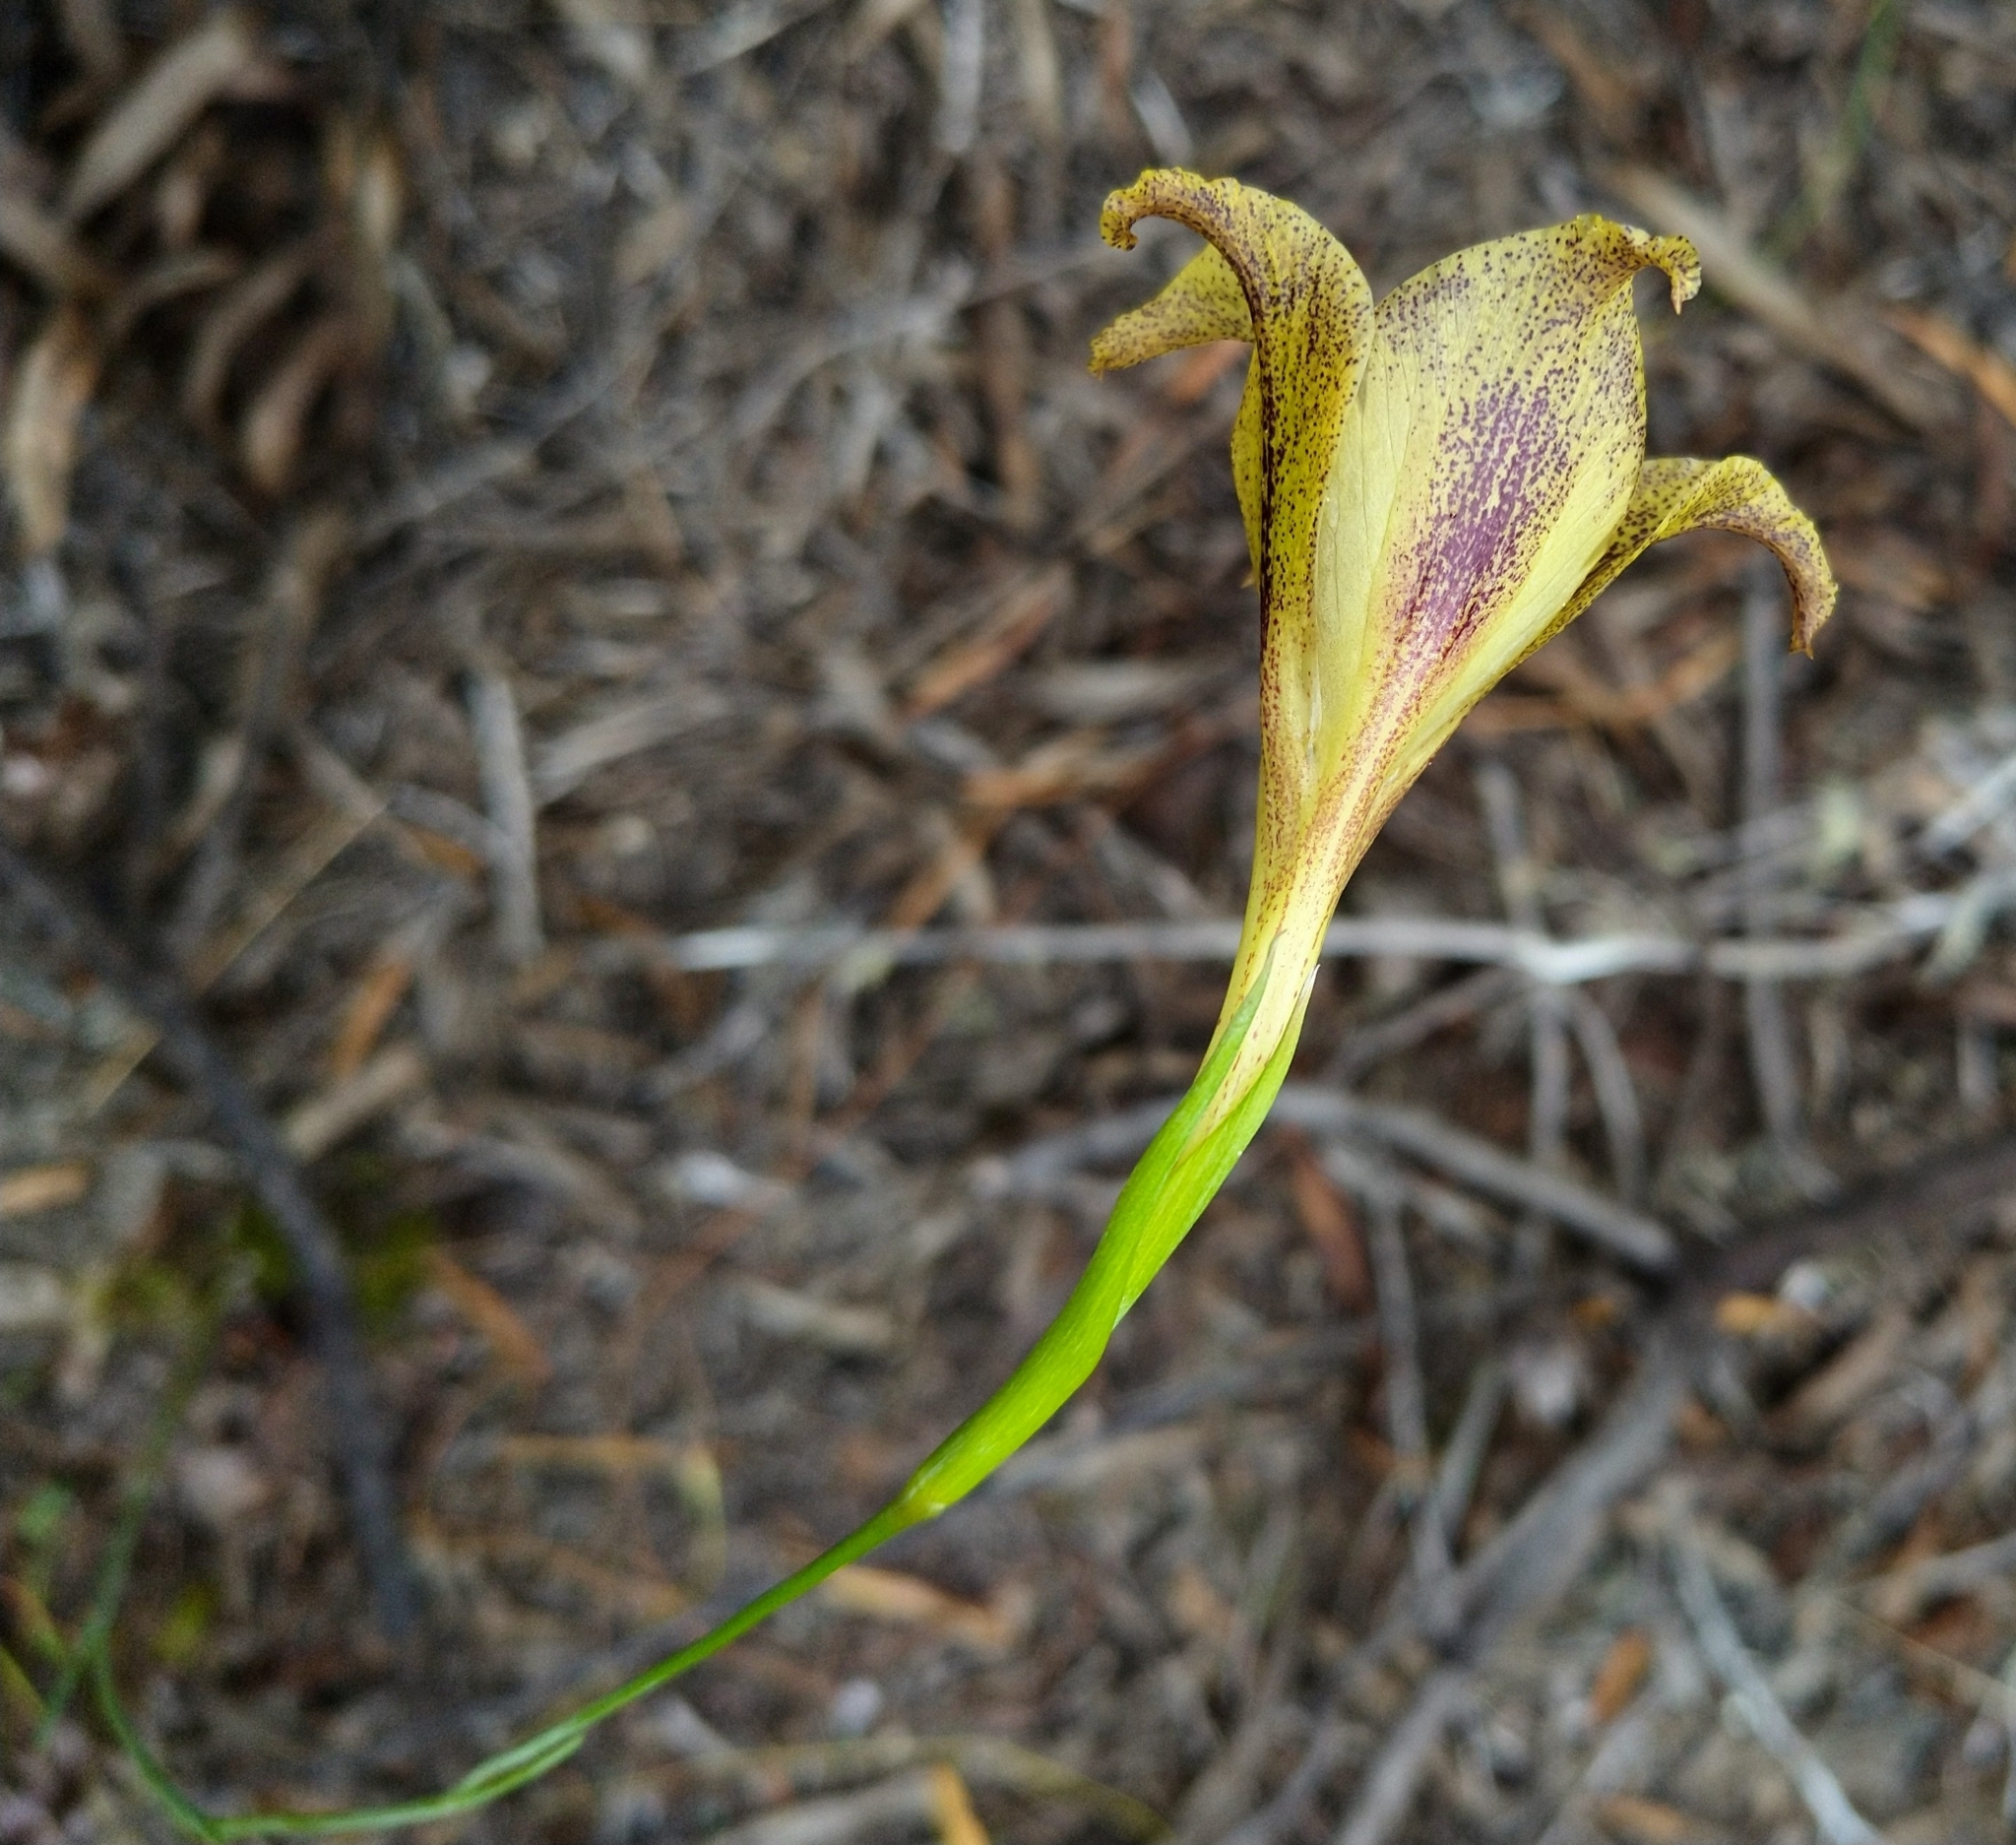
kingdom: Plantae
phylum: Tracheophyta
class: Liliopsida
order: Asparagales
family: Iridaceae
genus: Gladiolus
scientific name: Gladiolus maculatus
